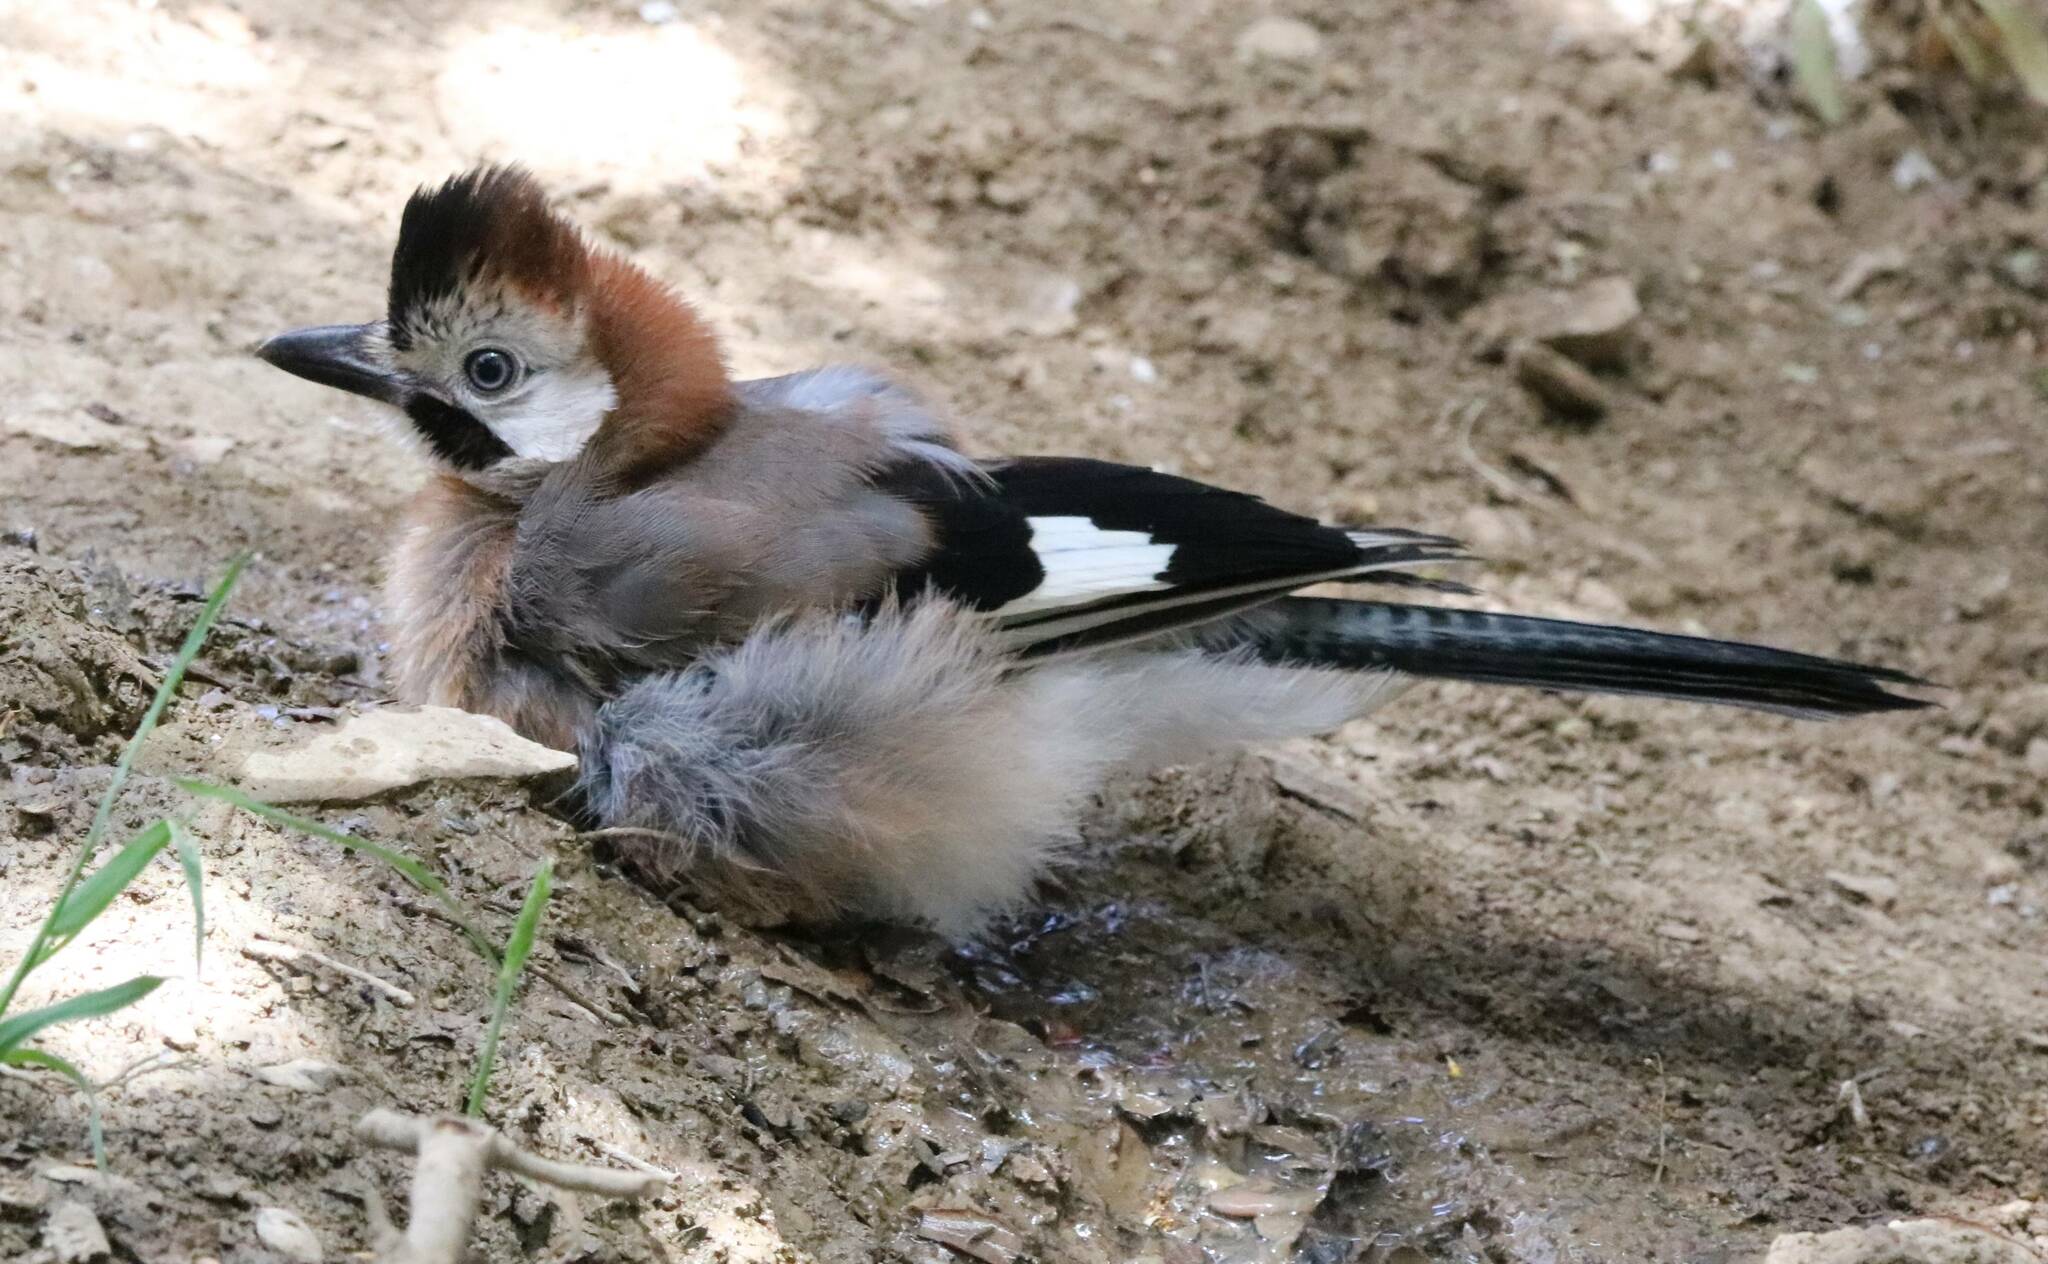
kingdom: Animalia
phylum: Chordata
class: Aves
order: Passeriformes
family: Corvidae
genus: Garrulus
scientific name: Garrulus glandarius
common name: Eurasian jay
